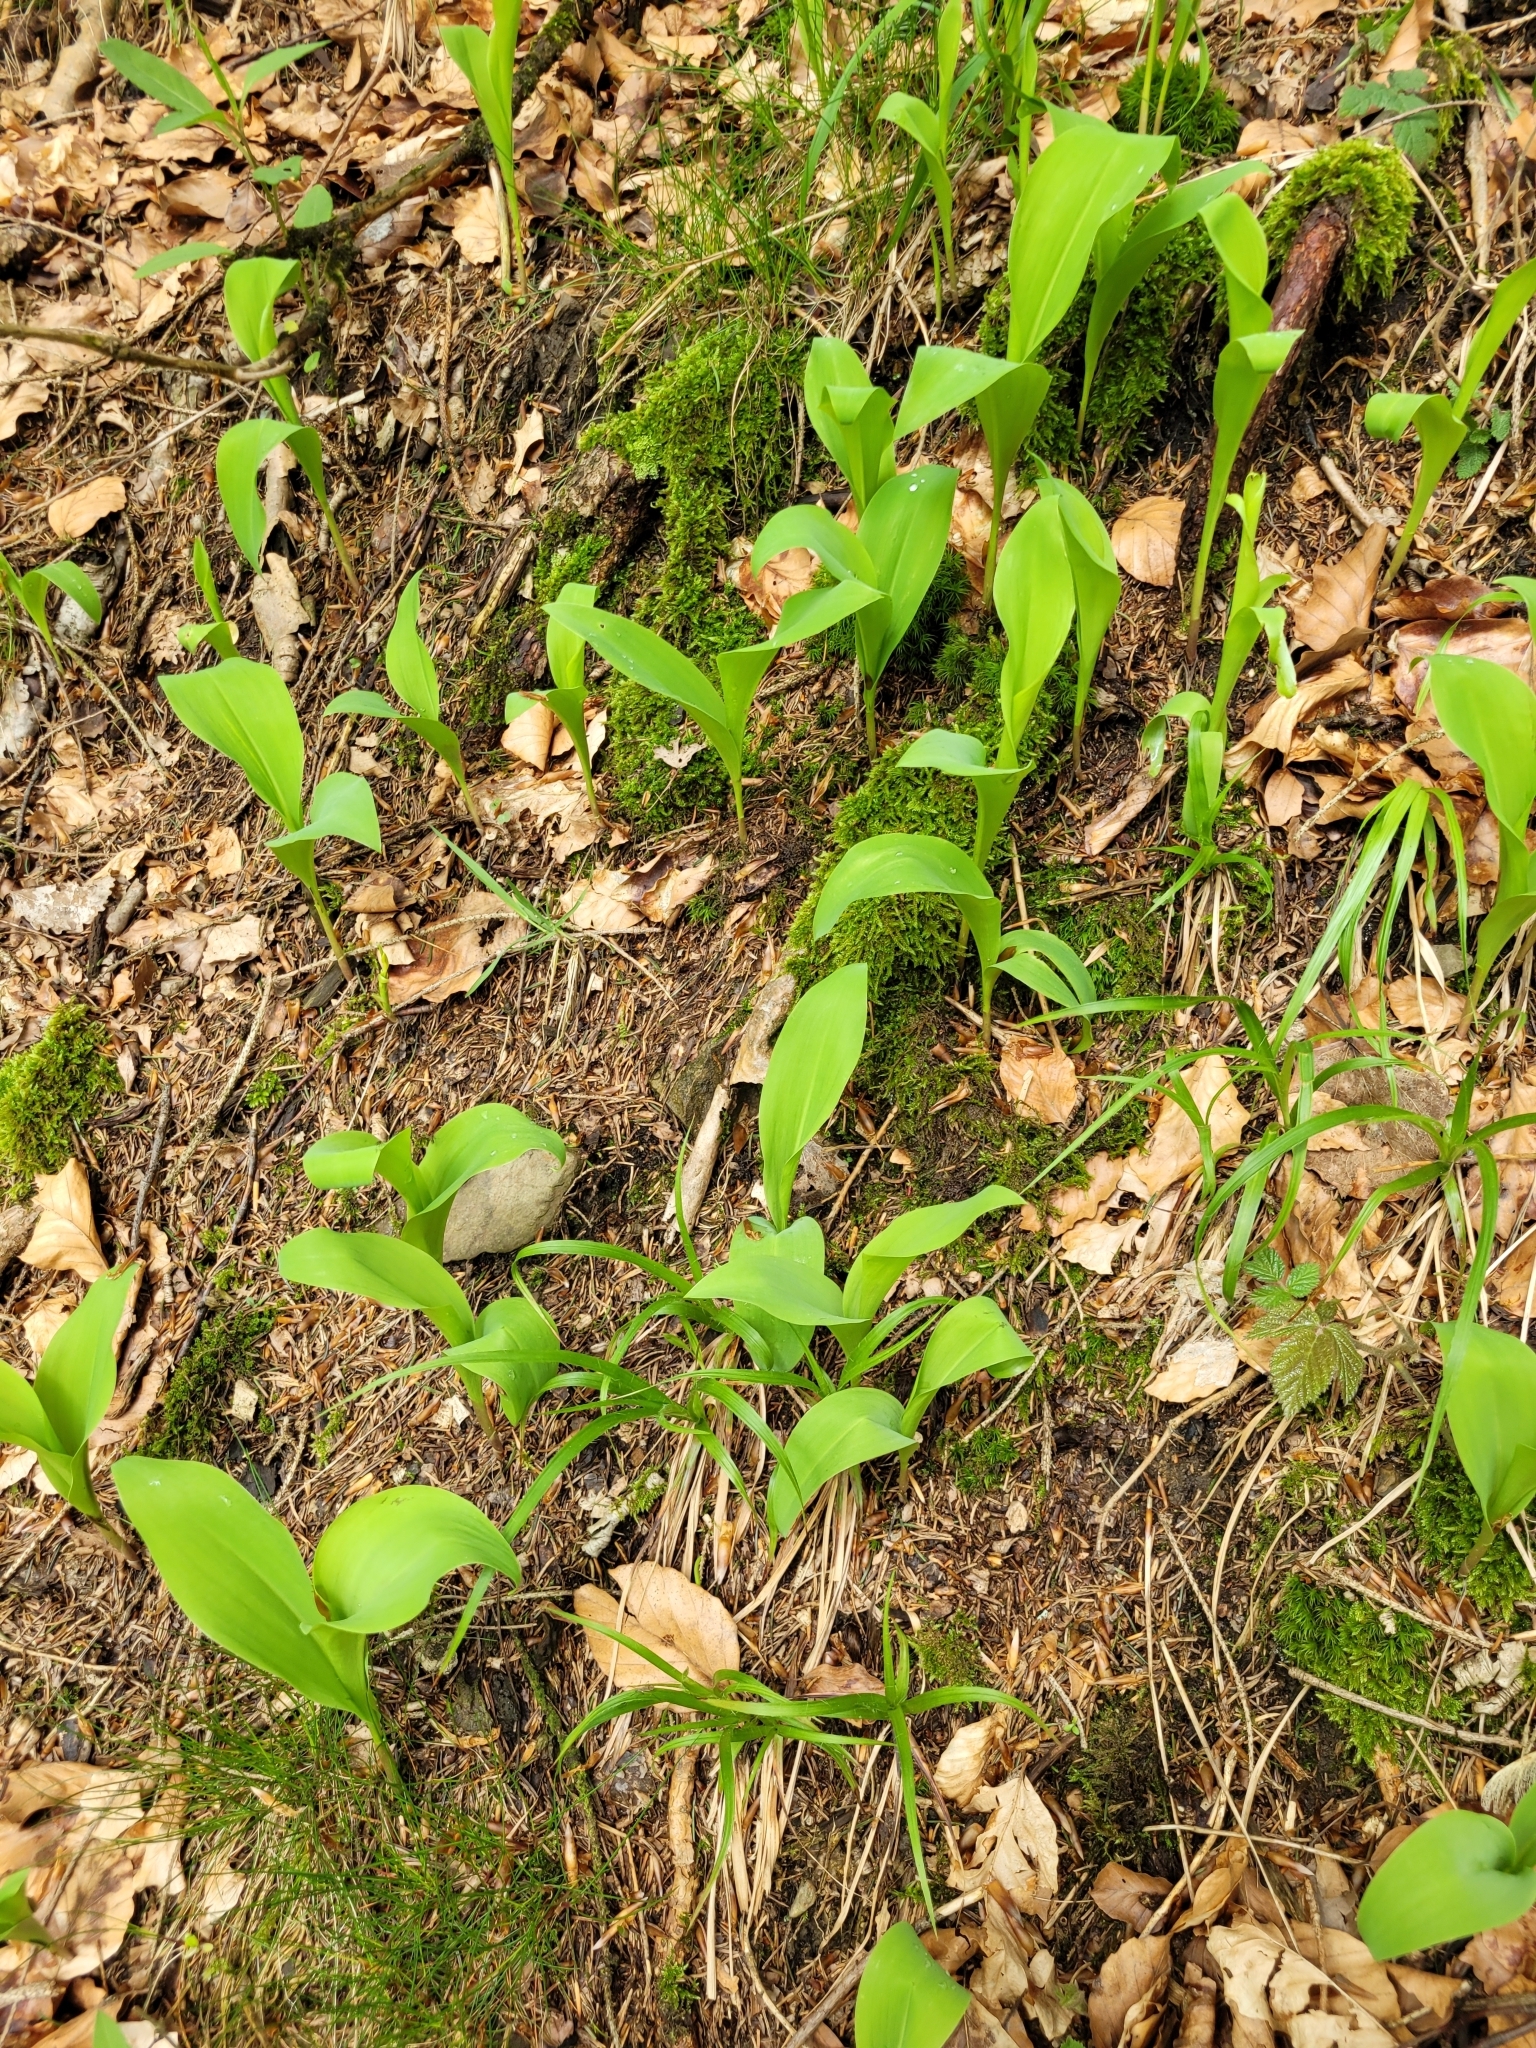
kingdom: Plantae
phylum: Tracheophyta
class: Liliopsida
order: Asparagales
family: Asparagaceae
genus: Convallaria
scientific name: Convallaria majalis
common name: Lily-of-the-valley
